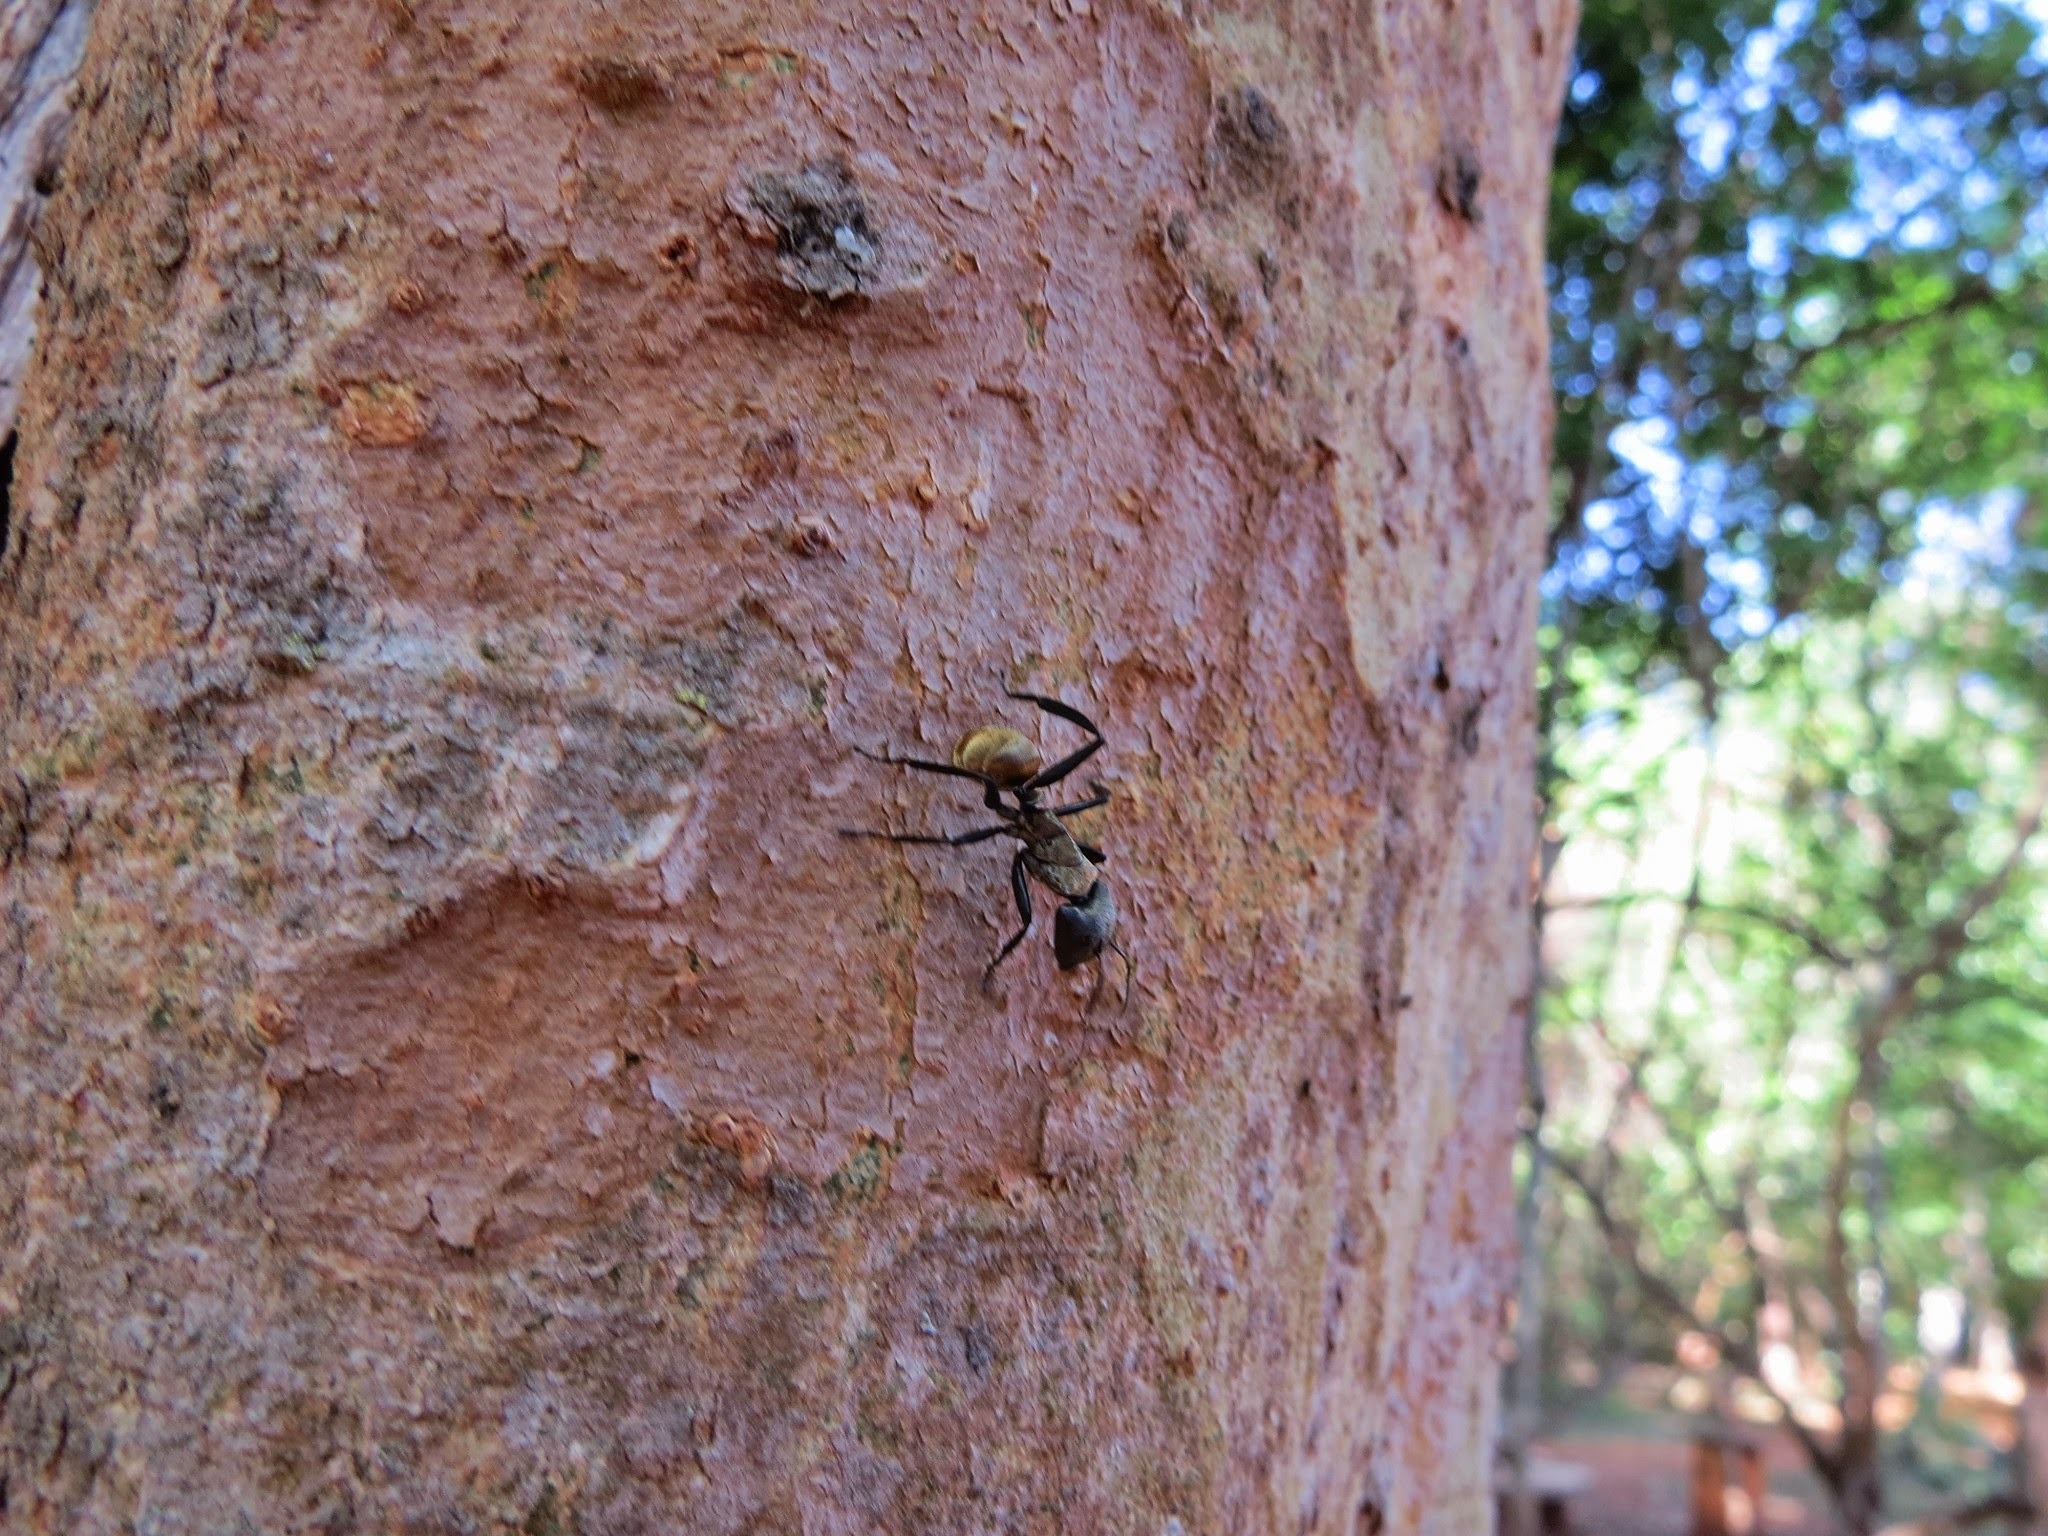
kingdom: Animalia
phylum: Arthropoda
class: Insecta
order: Hymenoptera
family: Formicidae
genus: Camponotus
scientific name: Camponotus sericeiventris
